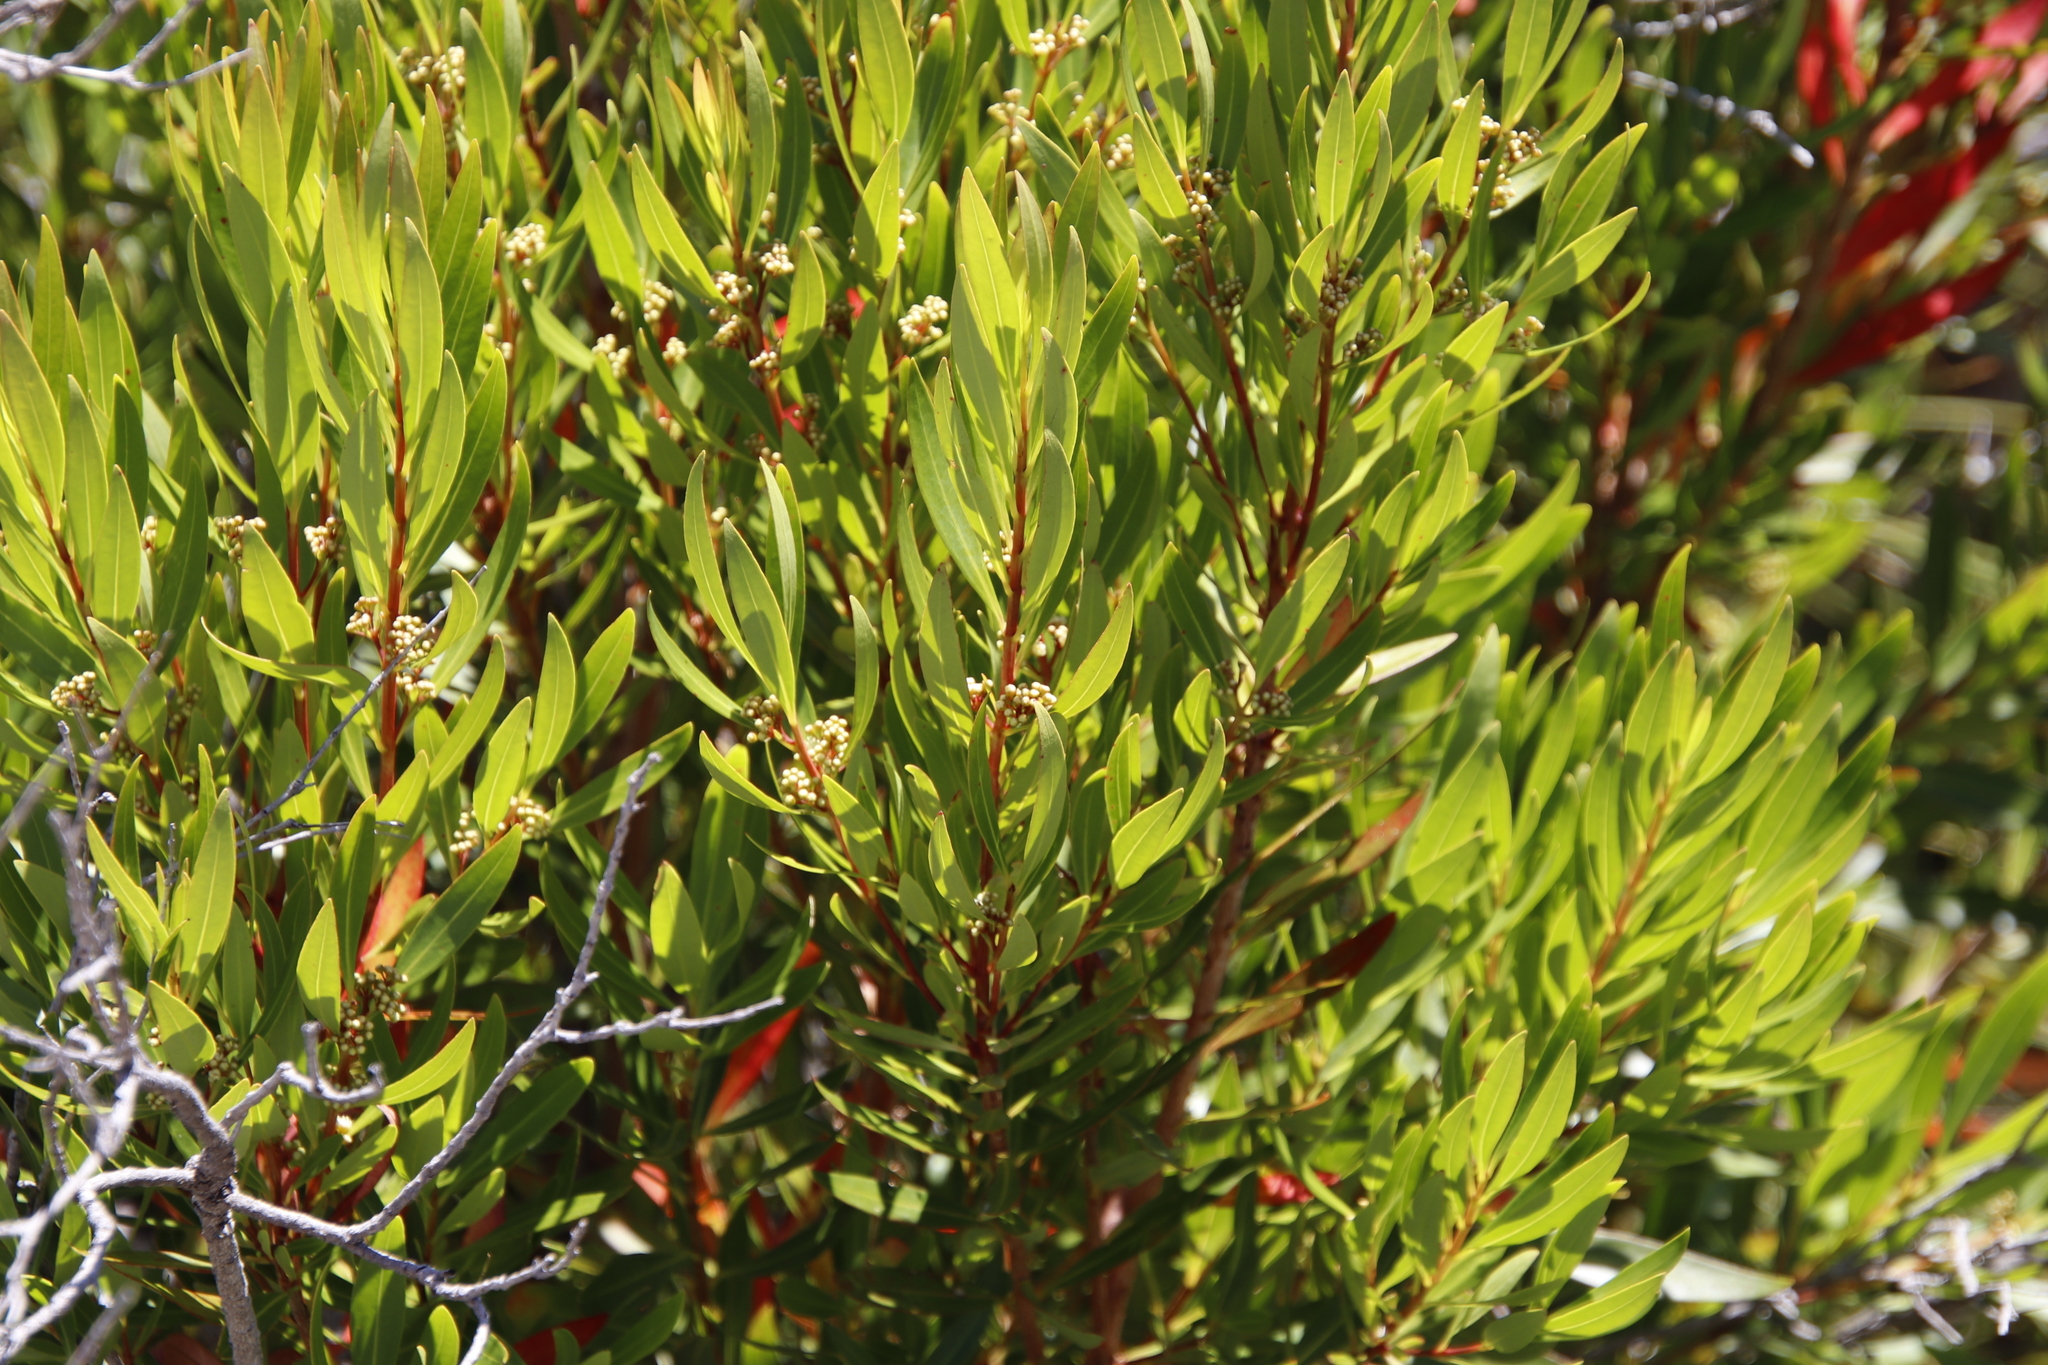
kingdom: Plantae
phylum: Tracheophyta
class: Magnoliopsida
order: Myrtales
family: Myrtaceae
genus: Callistemon
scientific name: Callistemon lanceolatus
